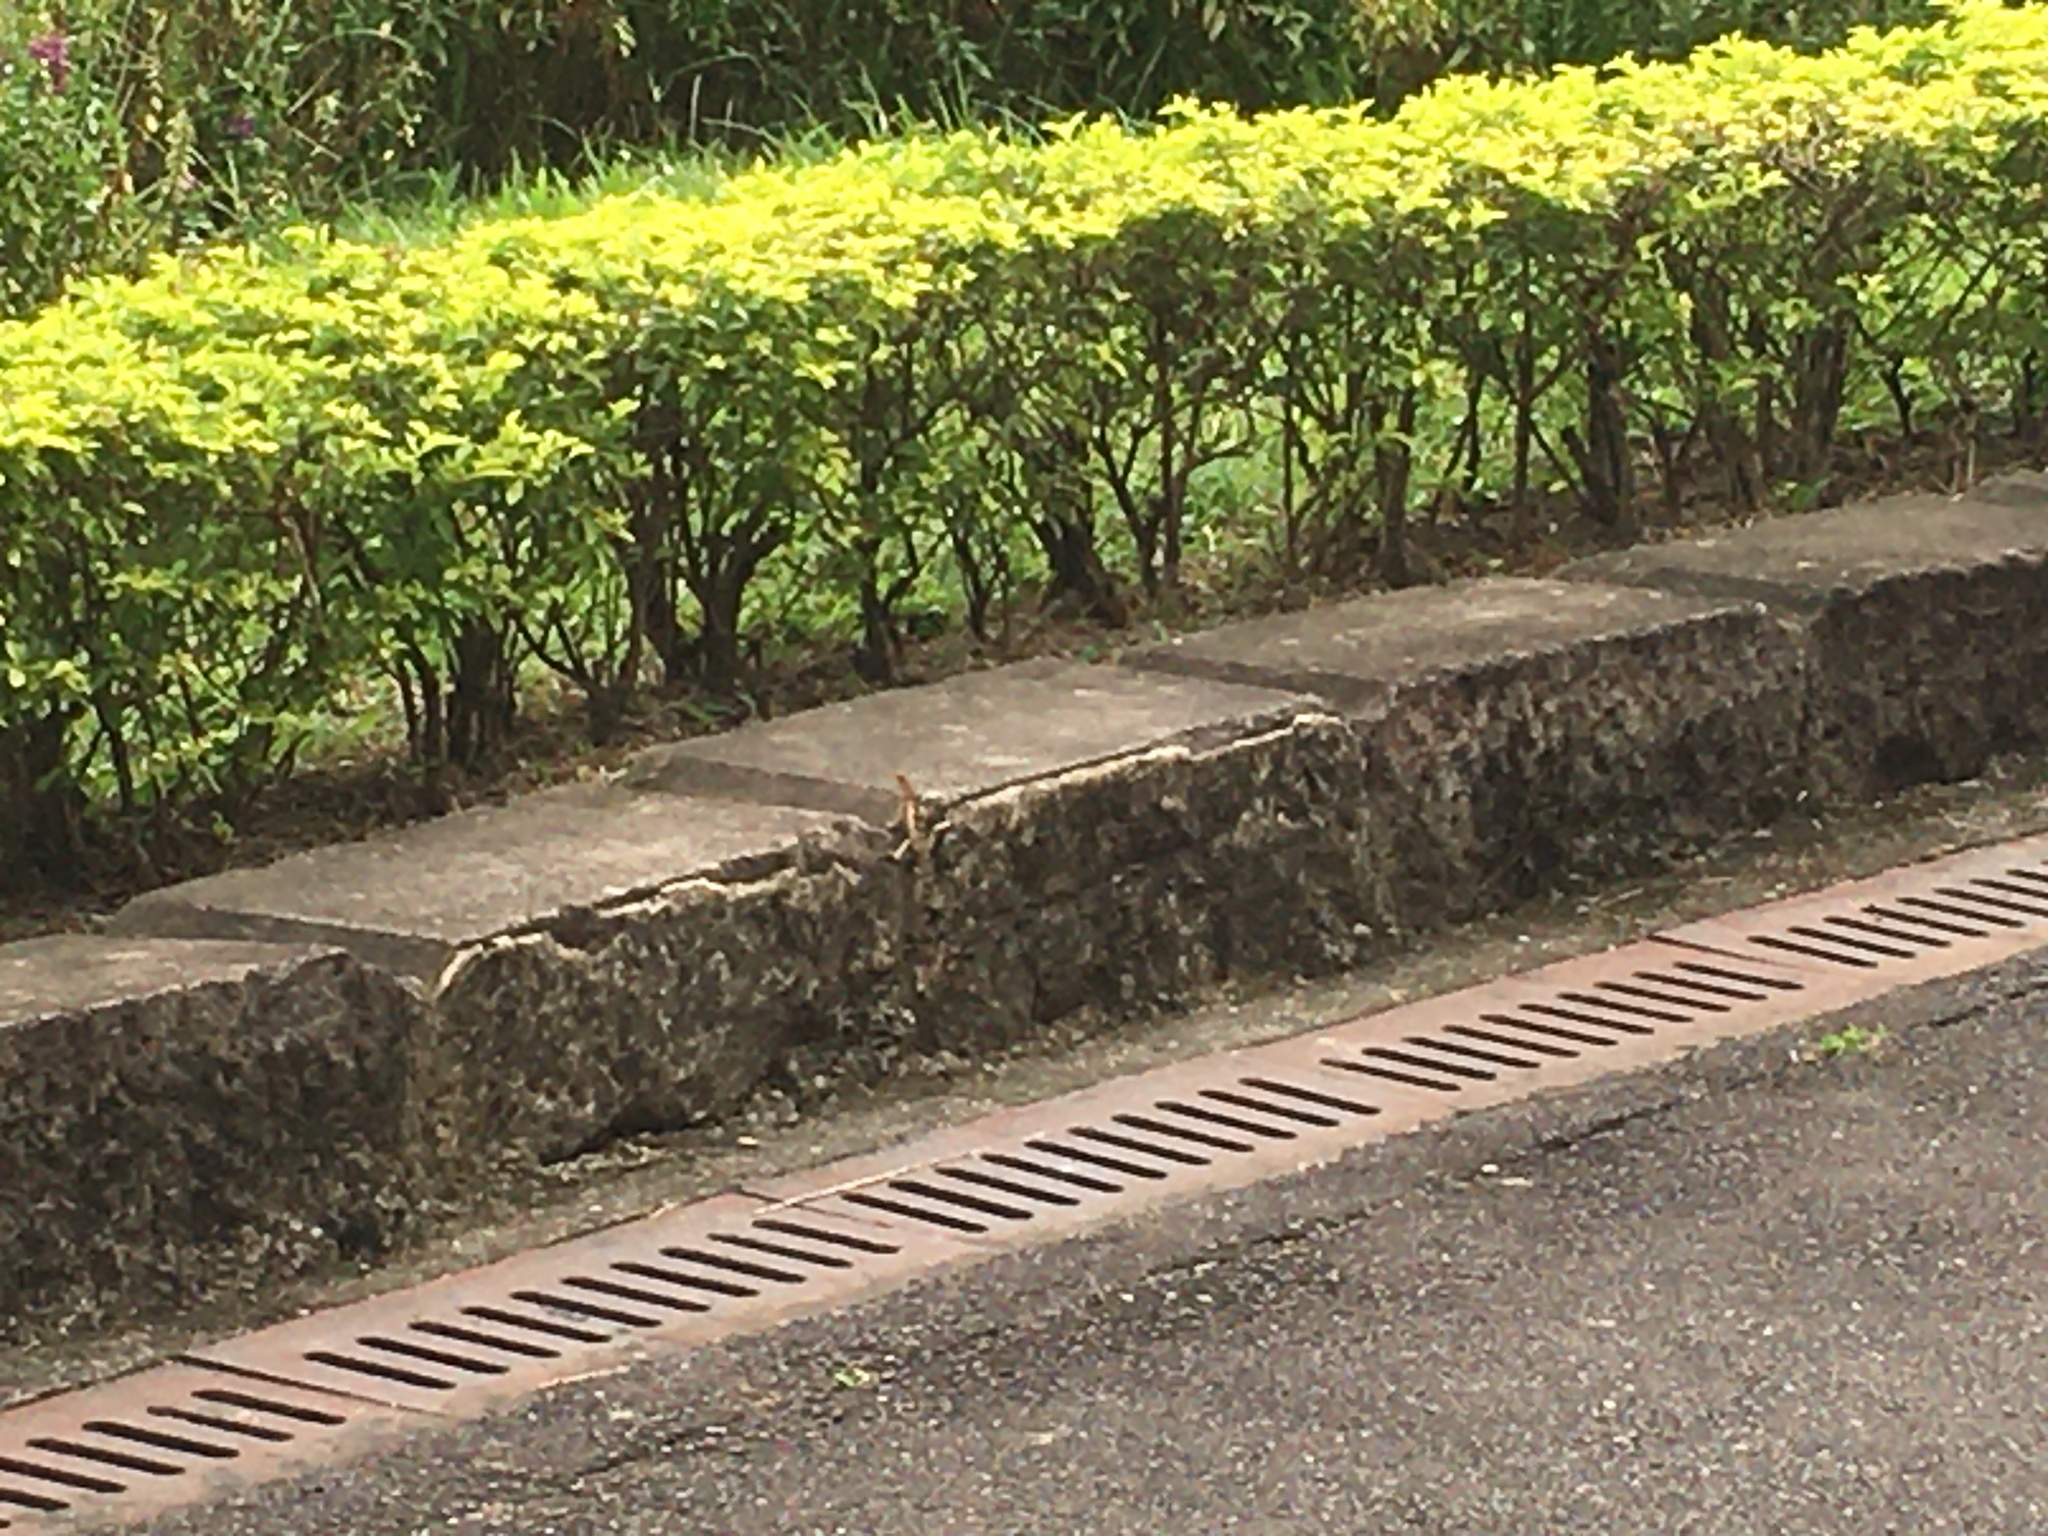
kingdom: Animalia
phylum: Chordata
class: Squamata
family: Agamidae
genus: Diploderma
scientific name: Diploderma swinhonis
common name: Taiwan japalure
